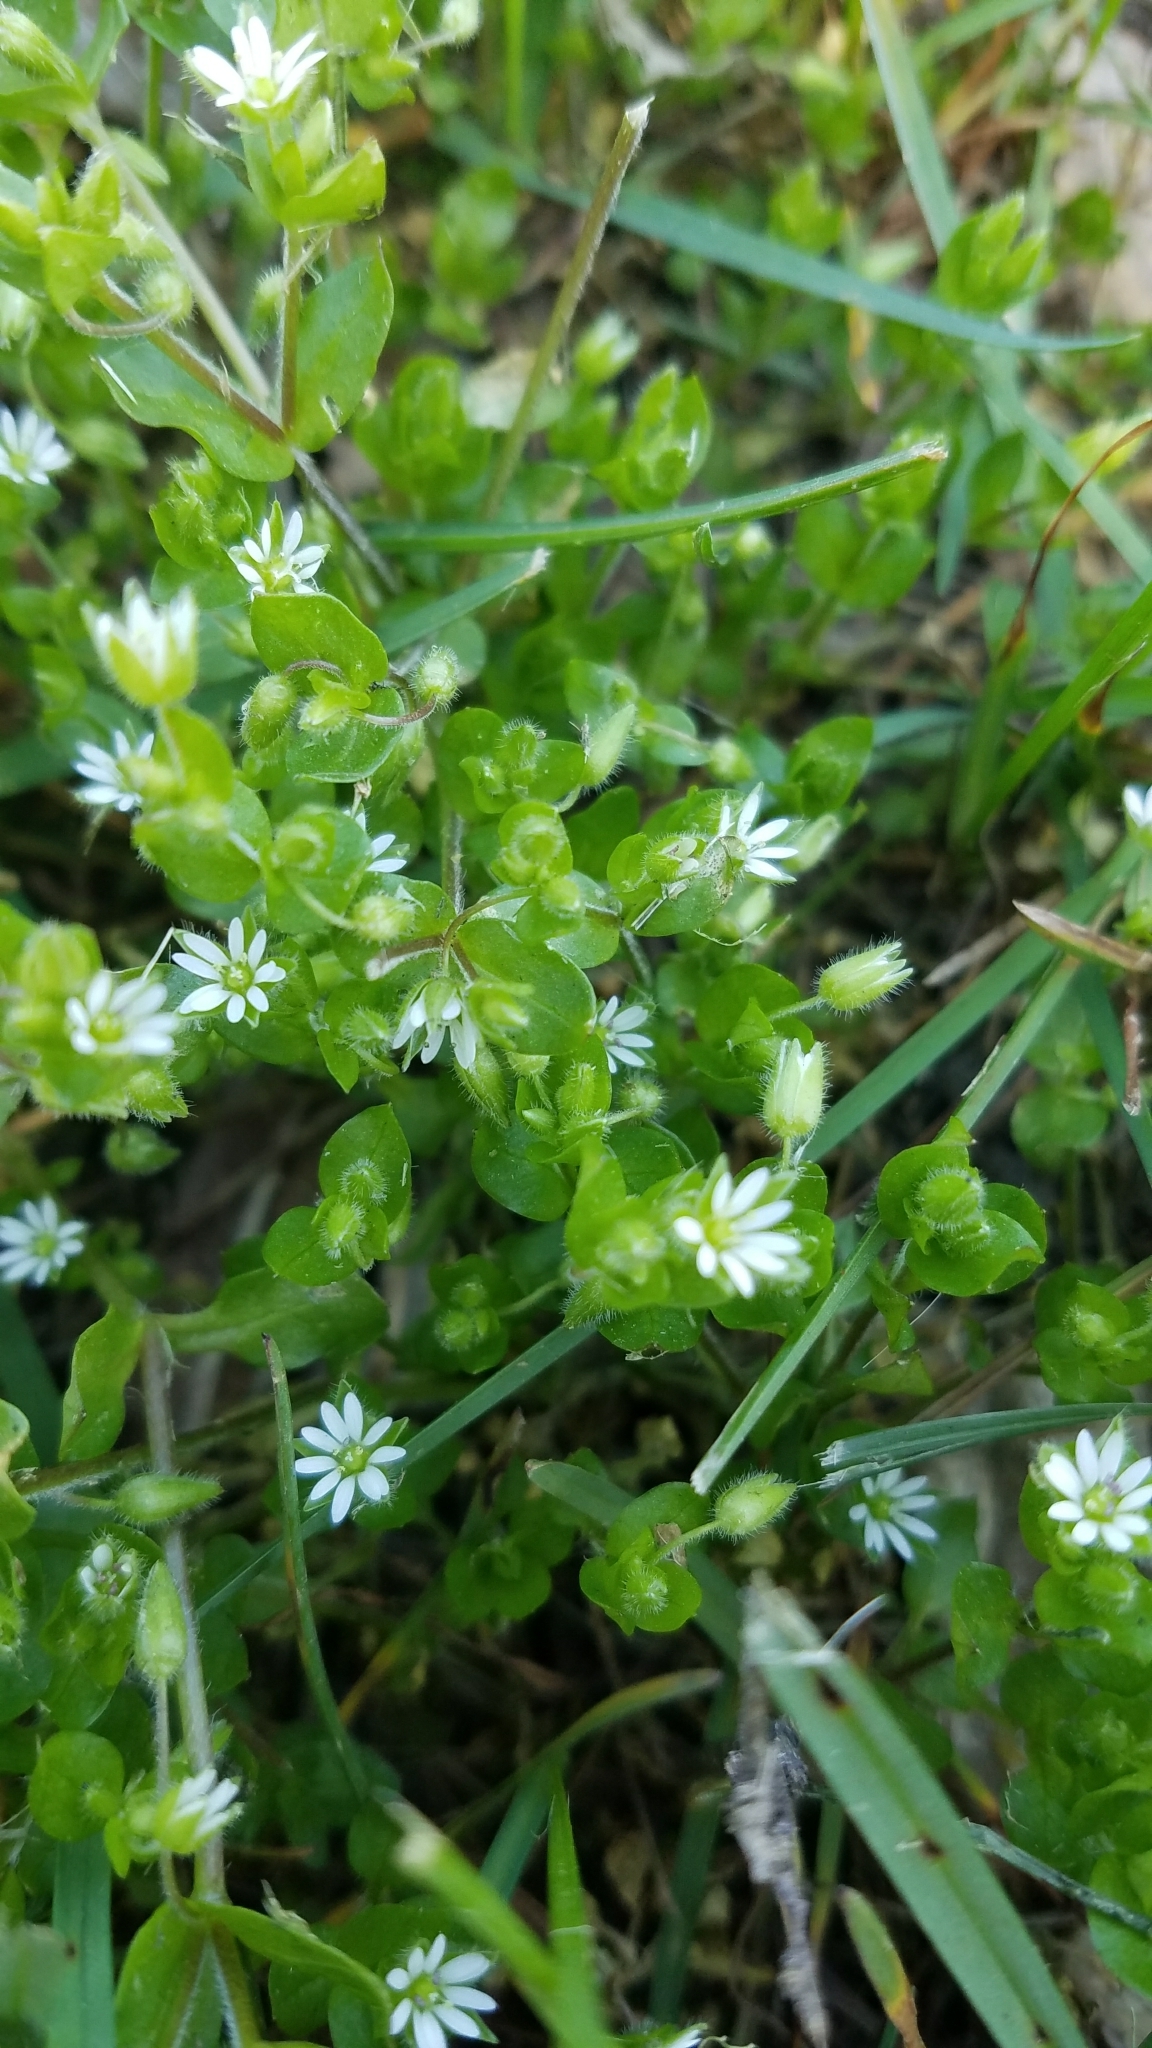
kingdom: Plantae
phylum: Tracheophyta
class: Magnoliopsida
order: Caryophyllales
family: Caryophyllaceae
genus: Stellaria
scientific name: Stellaria media
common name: Common chickweed
